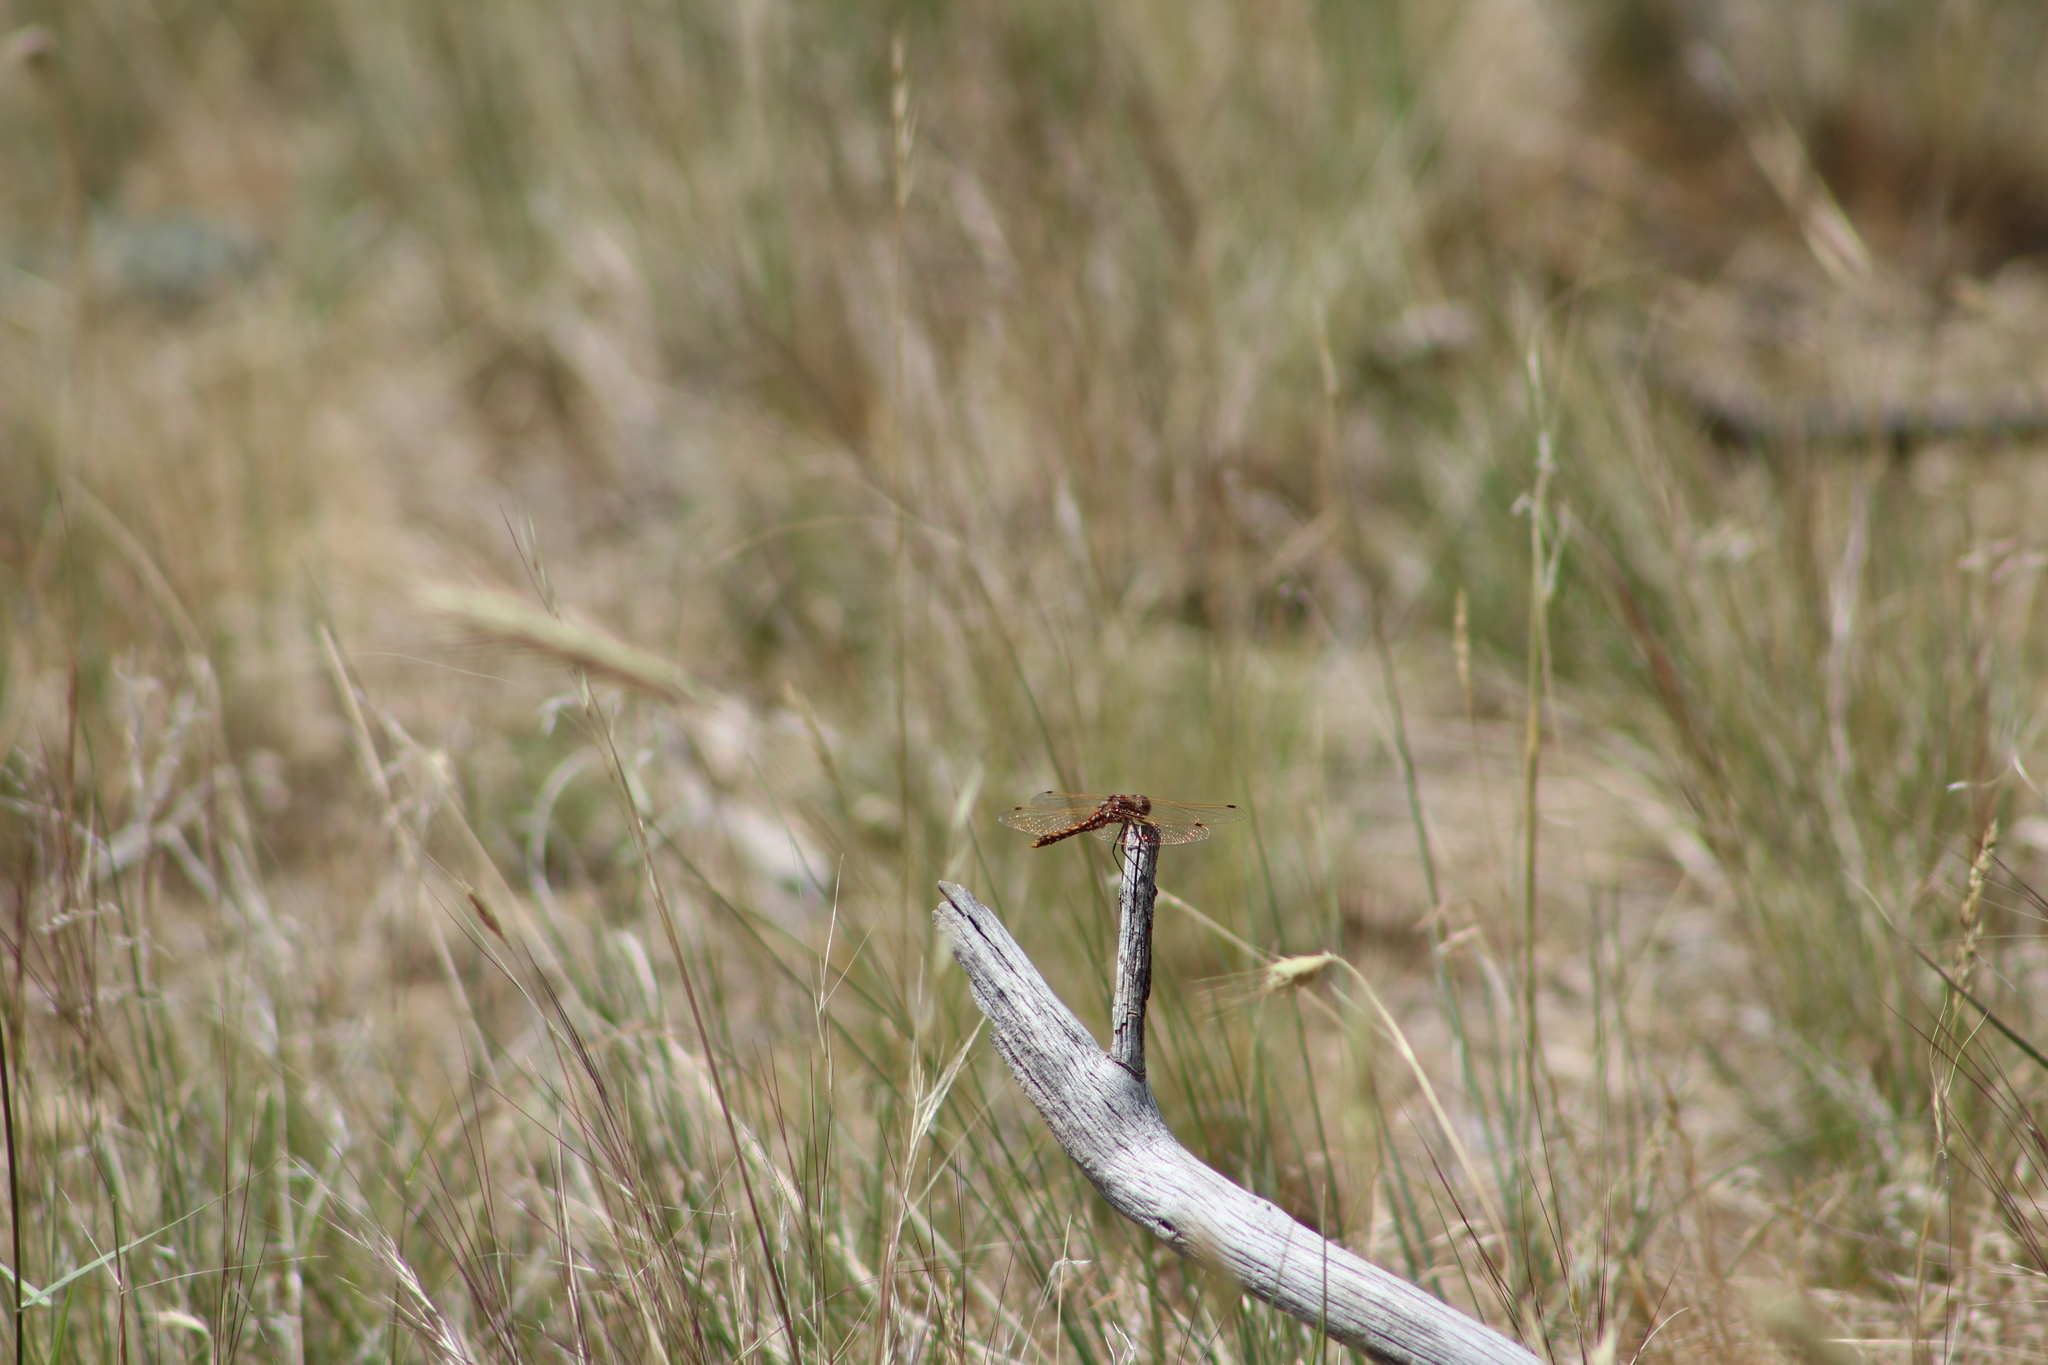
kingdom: Animalia
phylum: Arthropoda
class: Insecta
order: Odonata
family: Libellulidae
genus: Sympetrum
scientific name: Sympetrum corruptum
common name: Variegated meadowhawk
